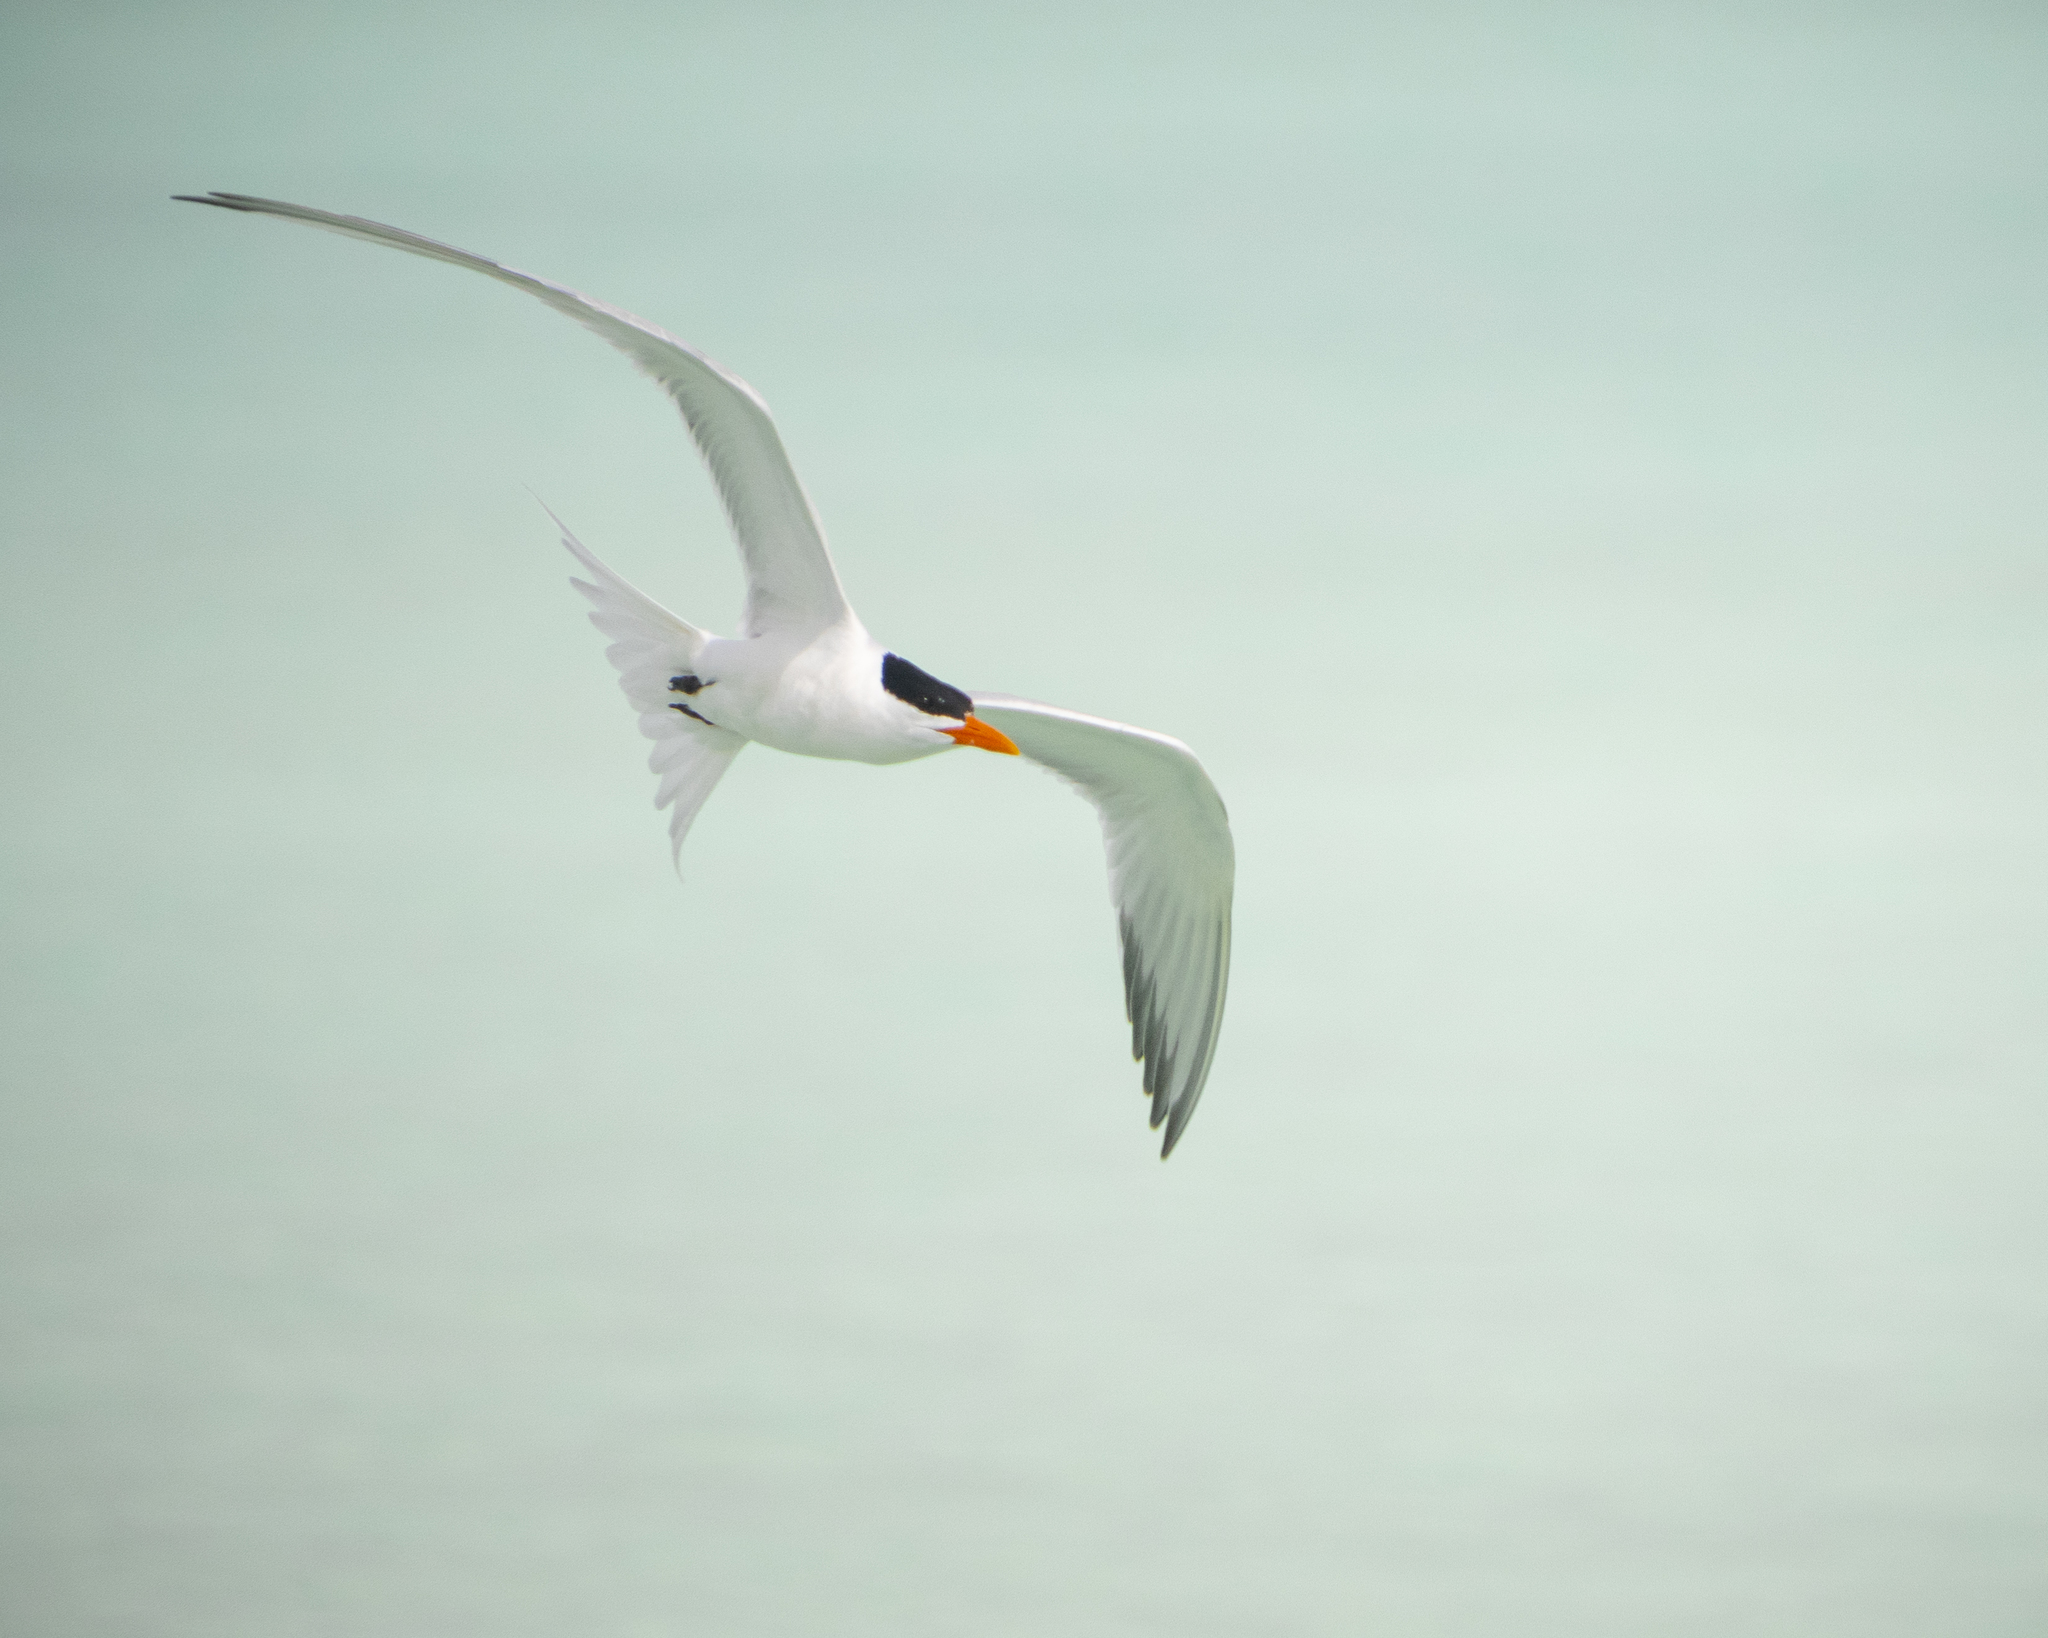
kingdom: Animalia
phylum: Chordata
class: Aves
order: Charadriiformes
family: Laridae
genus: Thalasseus
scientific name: Thalasseus maximus
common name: Royal tern
